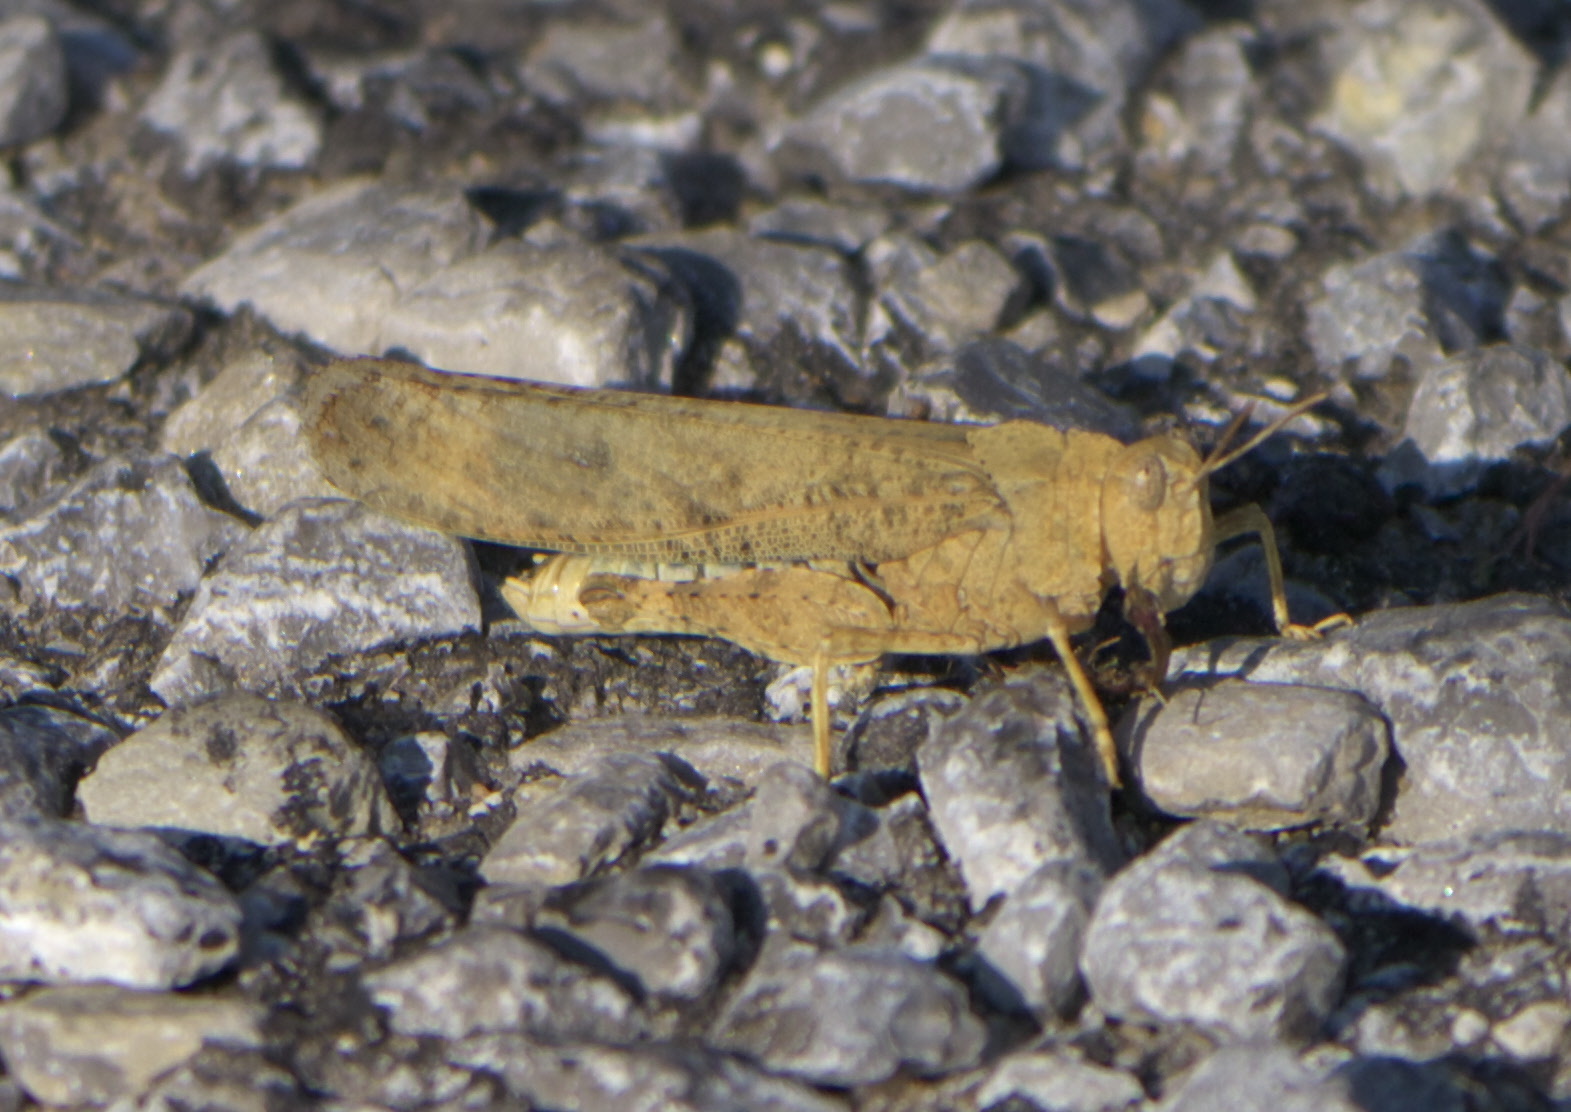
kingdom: Animalia
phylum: Arthropoda
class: Insecta
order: Orthoptera
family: Acrididae
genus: Dissosteira
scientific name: Dissosteira carolina
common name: Carolina grasshopper
